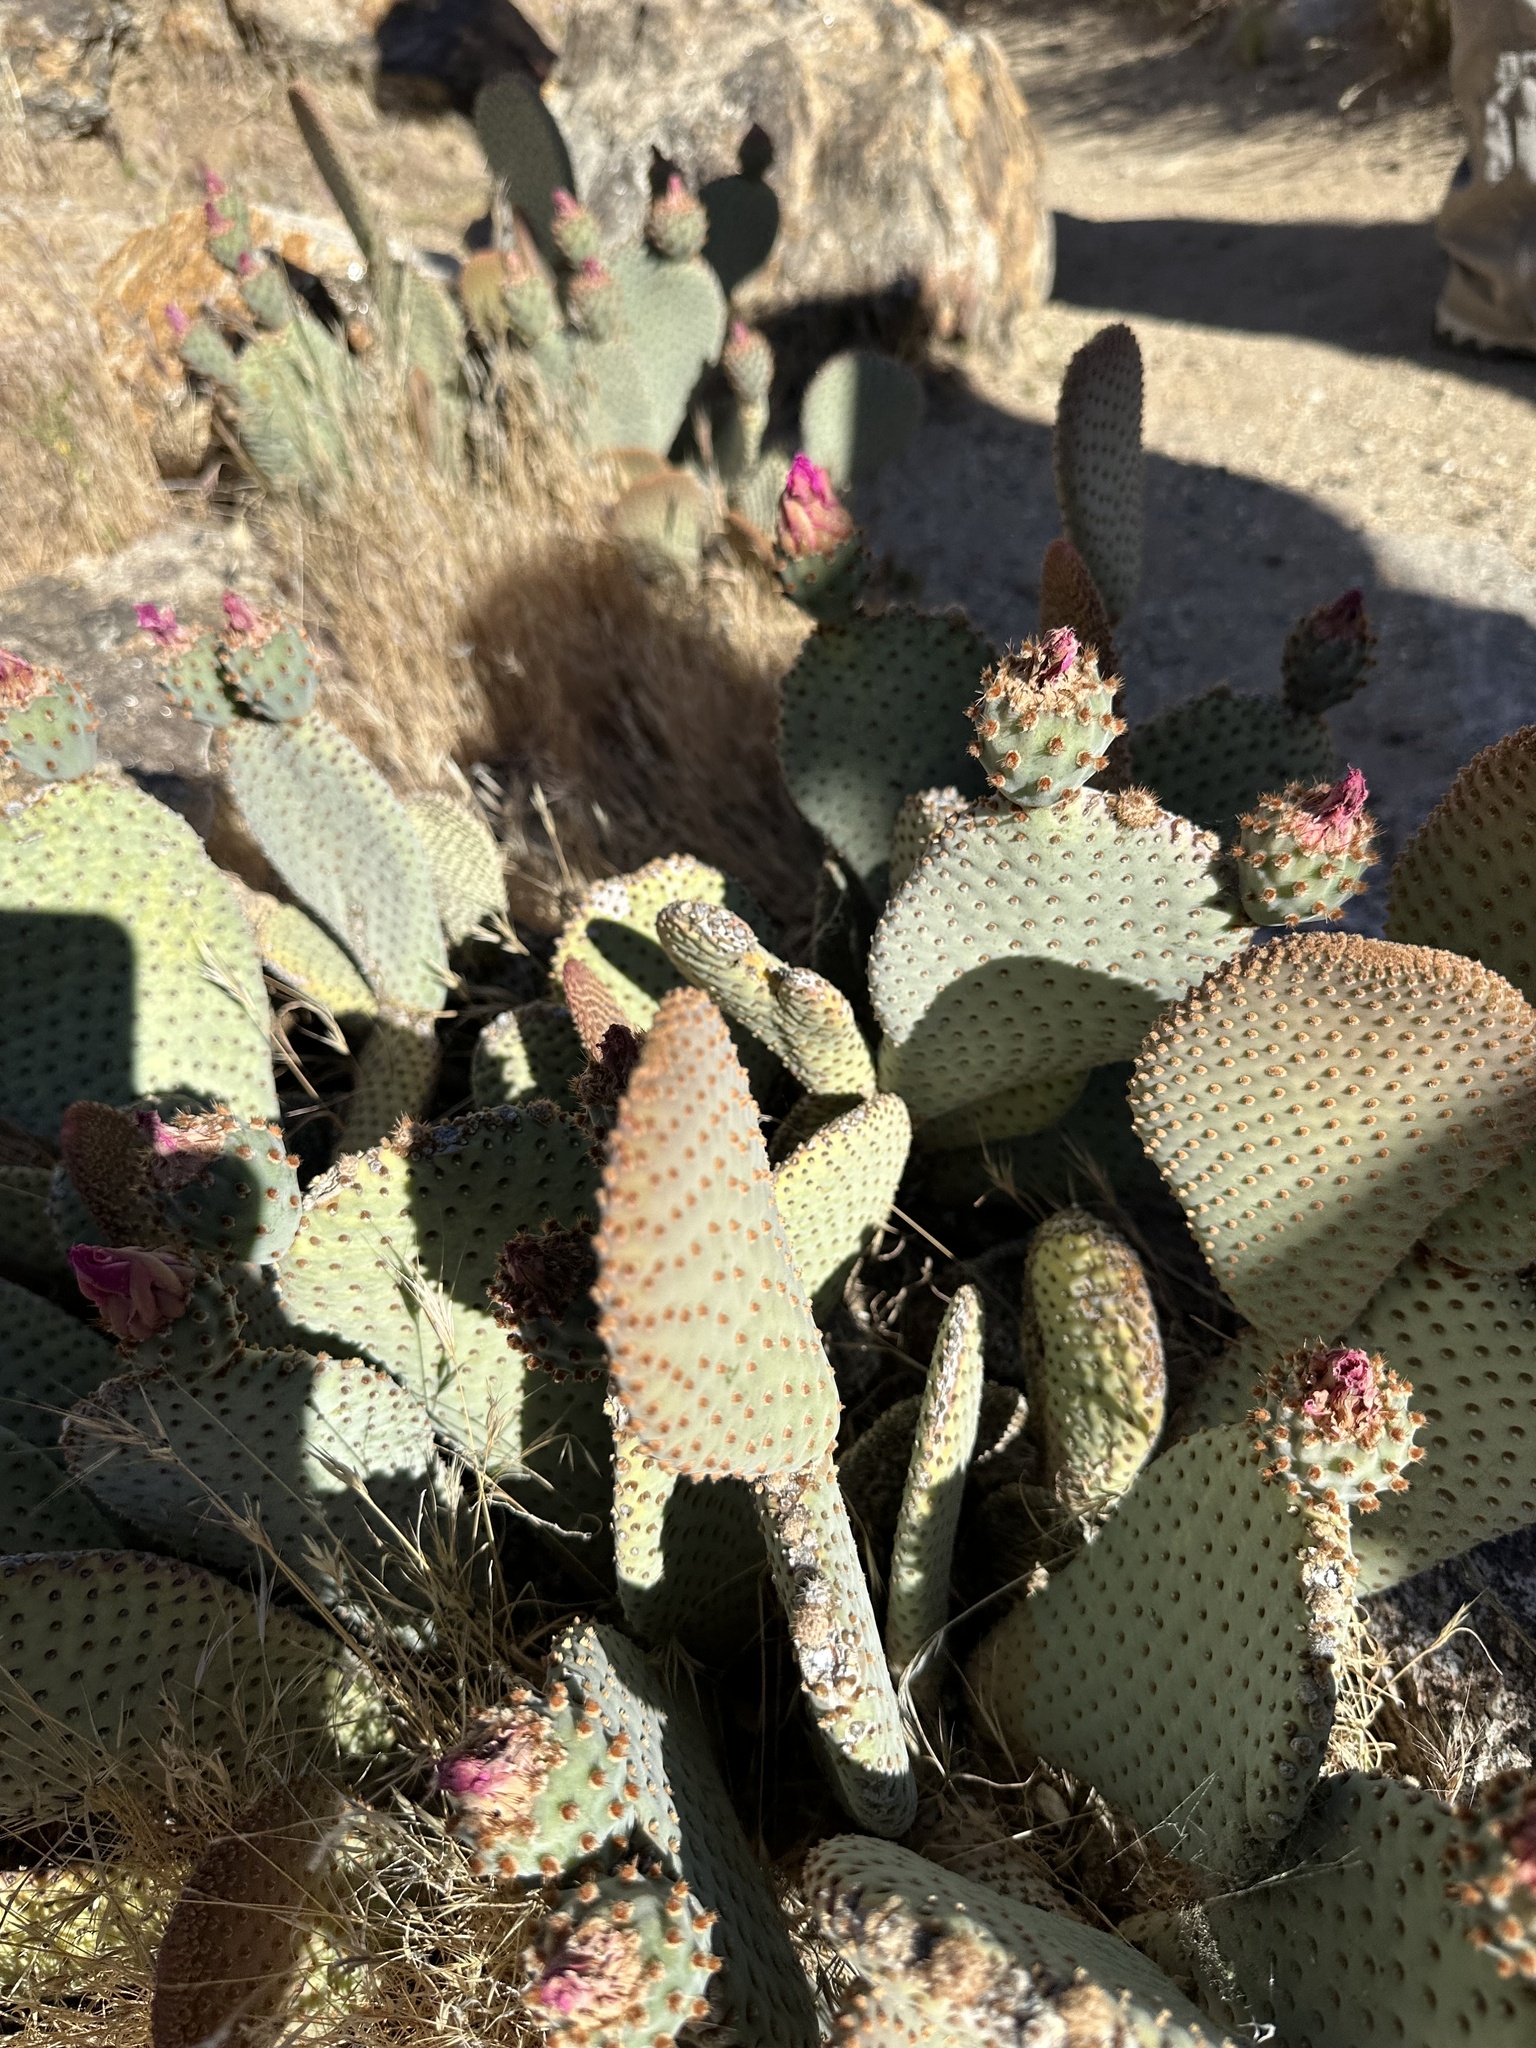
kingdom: Plantae
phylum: Tracheophyta
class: Magnoliopsida
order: Caryophyllales
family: Cactaceae
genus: Opuntia
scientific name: Opuntia basilaris
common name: Beavertail prickly-pear
